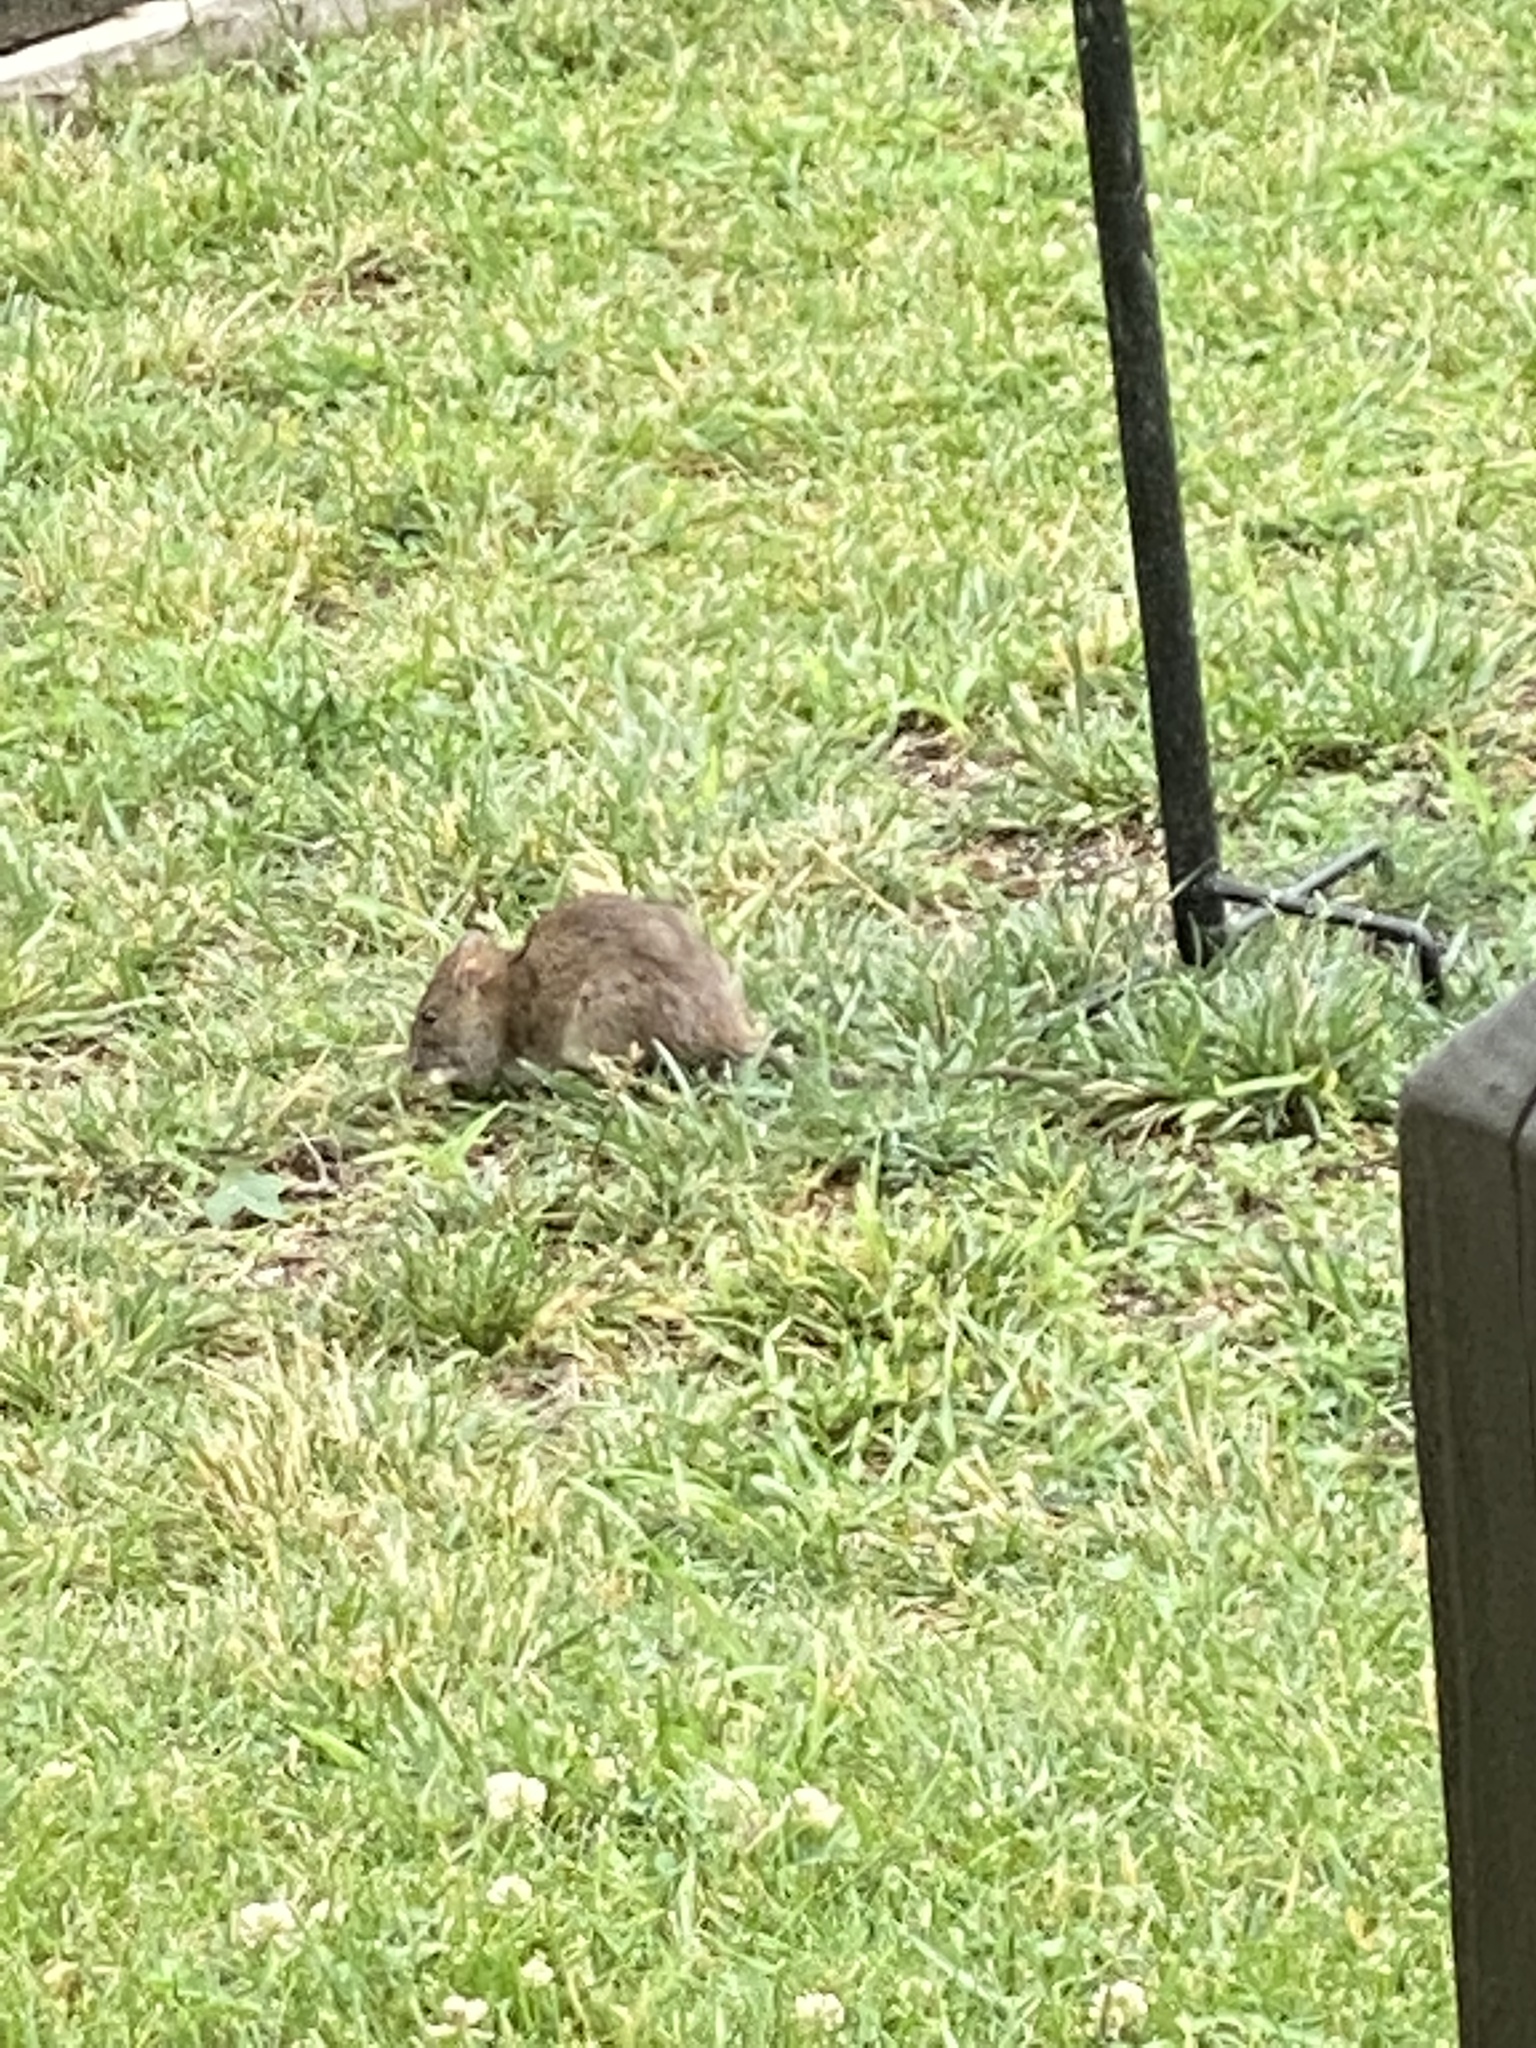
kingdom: Animalia
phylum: Chordata
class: Mammalia
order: Rodentia
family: Muridae
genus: Rattus
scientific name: Rattus norvegicus
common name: Brown rat
